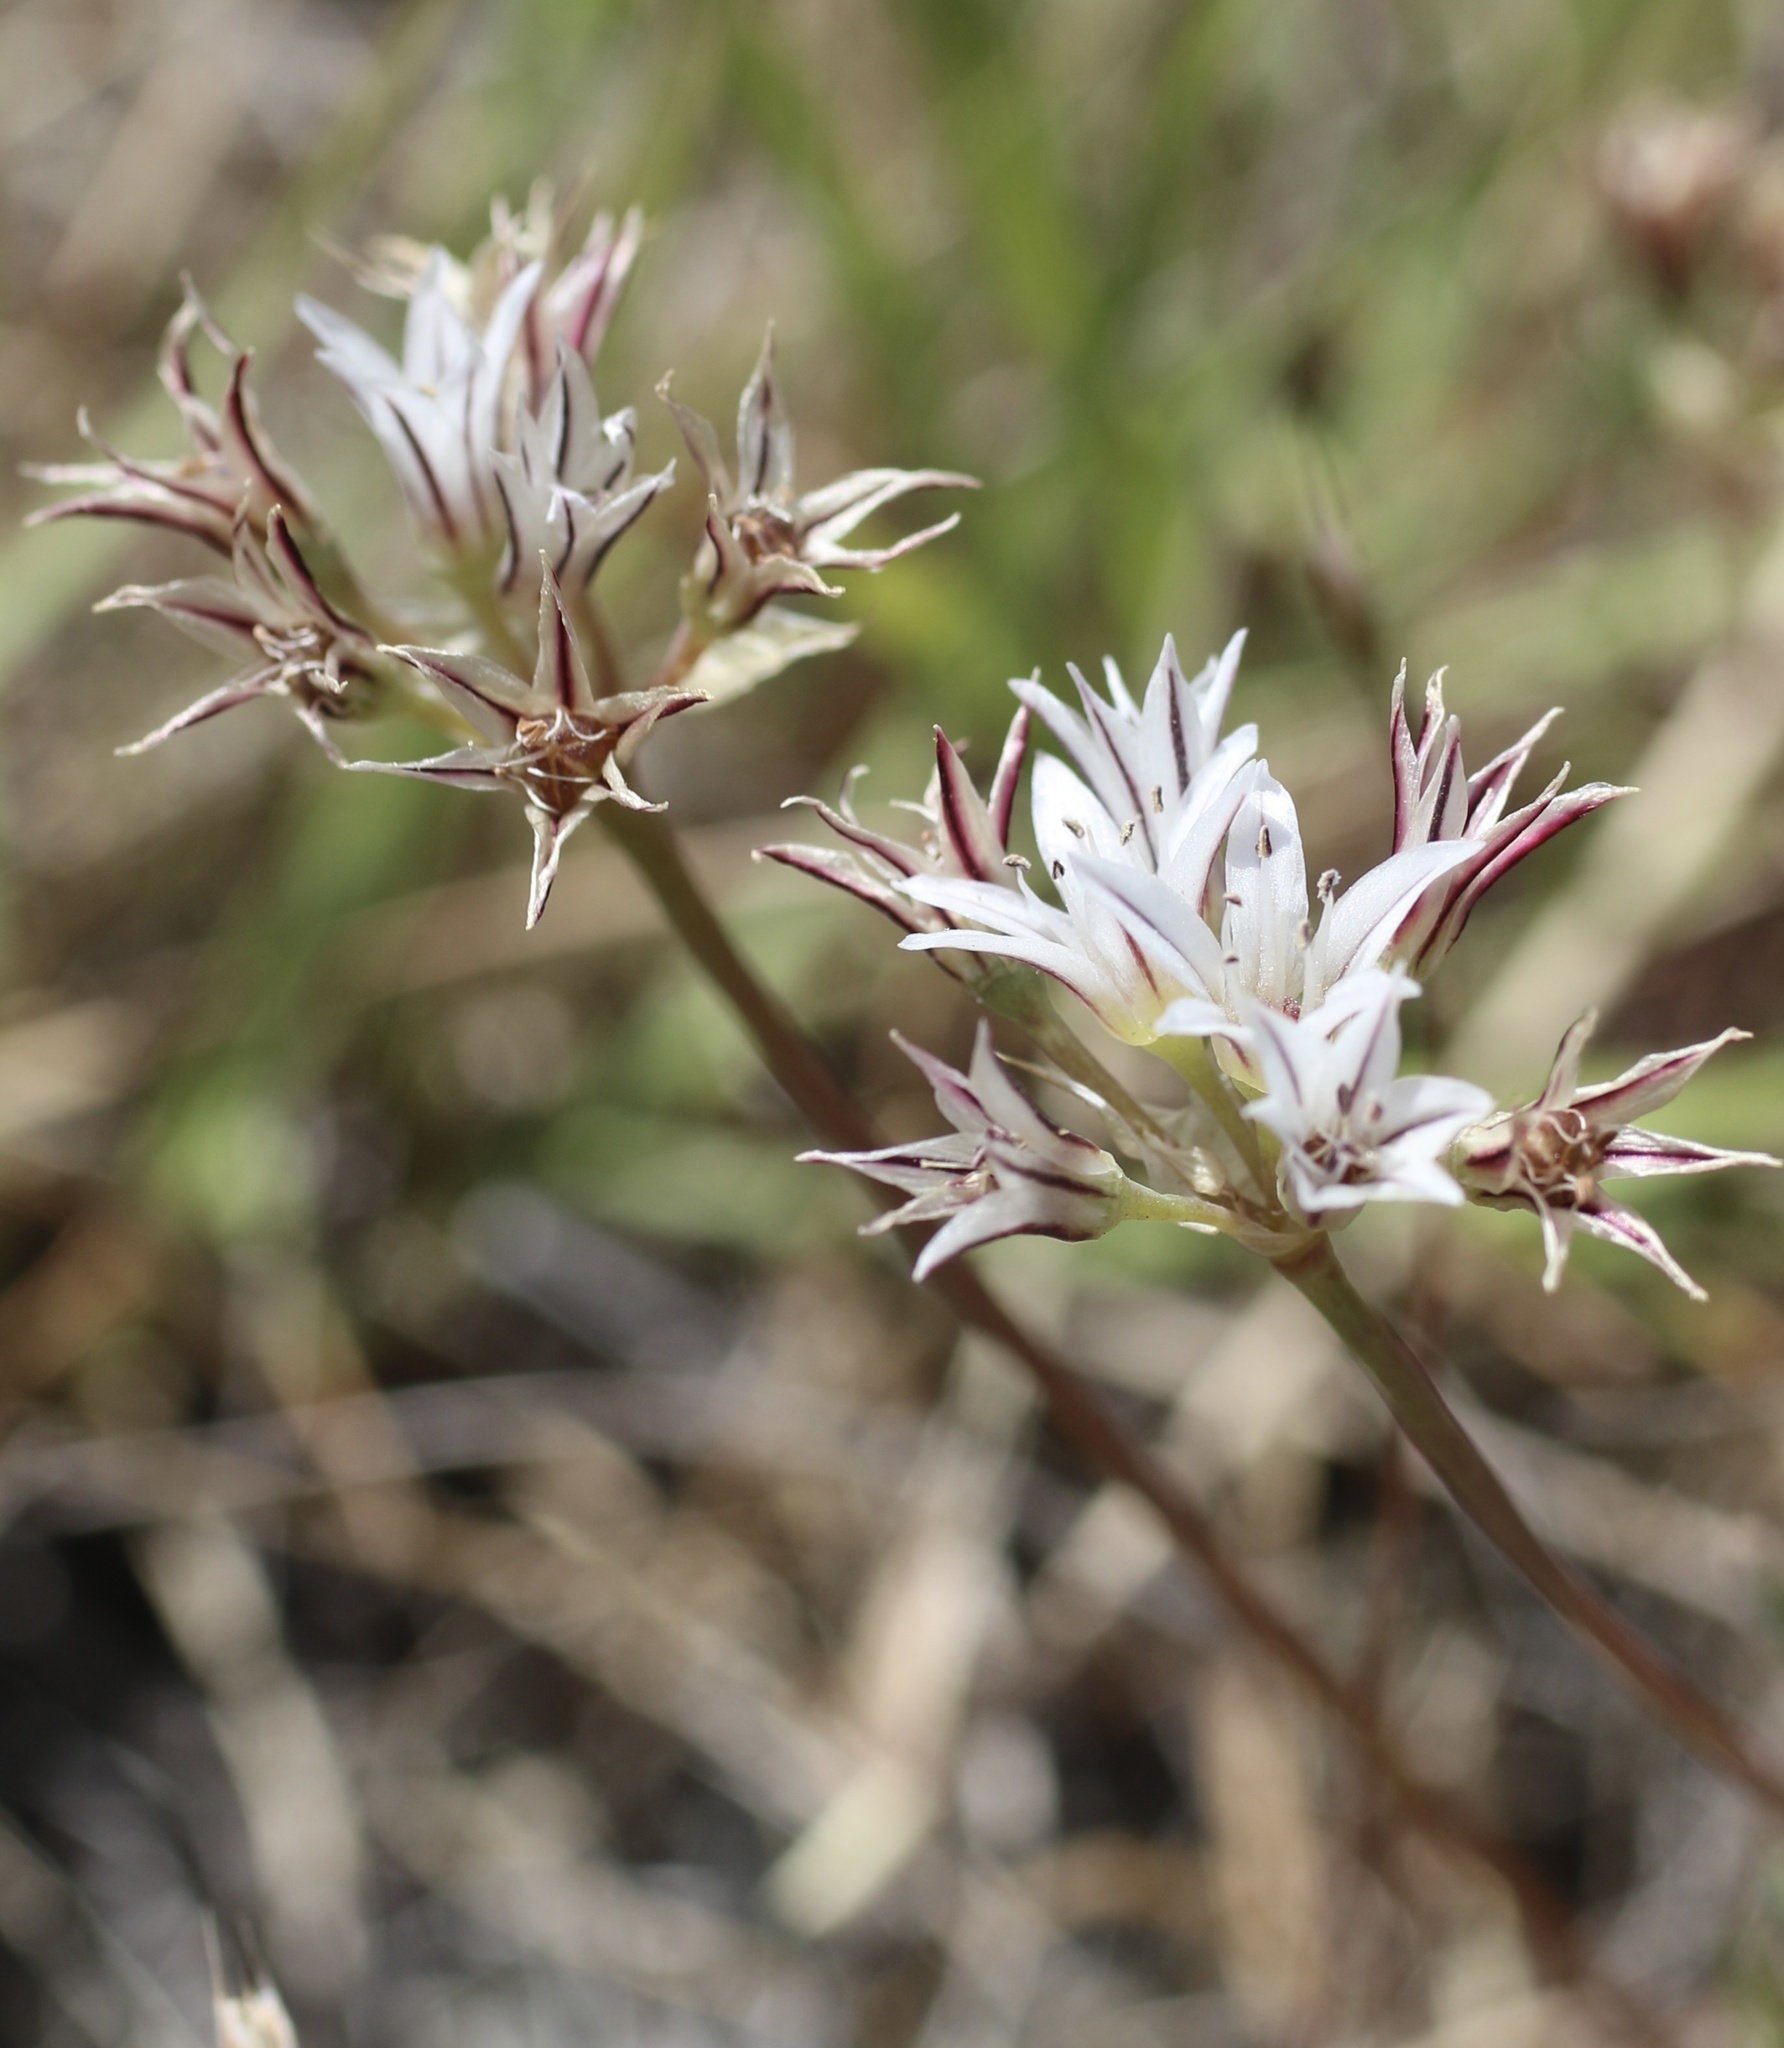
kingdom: Plantae
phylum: Tracheophyta
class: Liliopsida
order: Asparagales
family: Amaryllidaceae
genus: Allium
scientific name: Allium lacunosum
